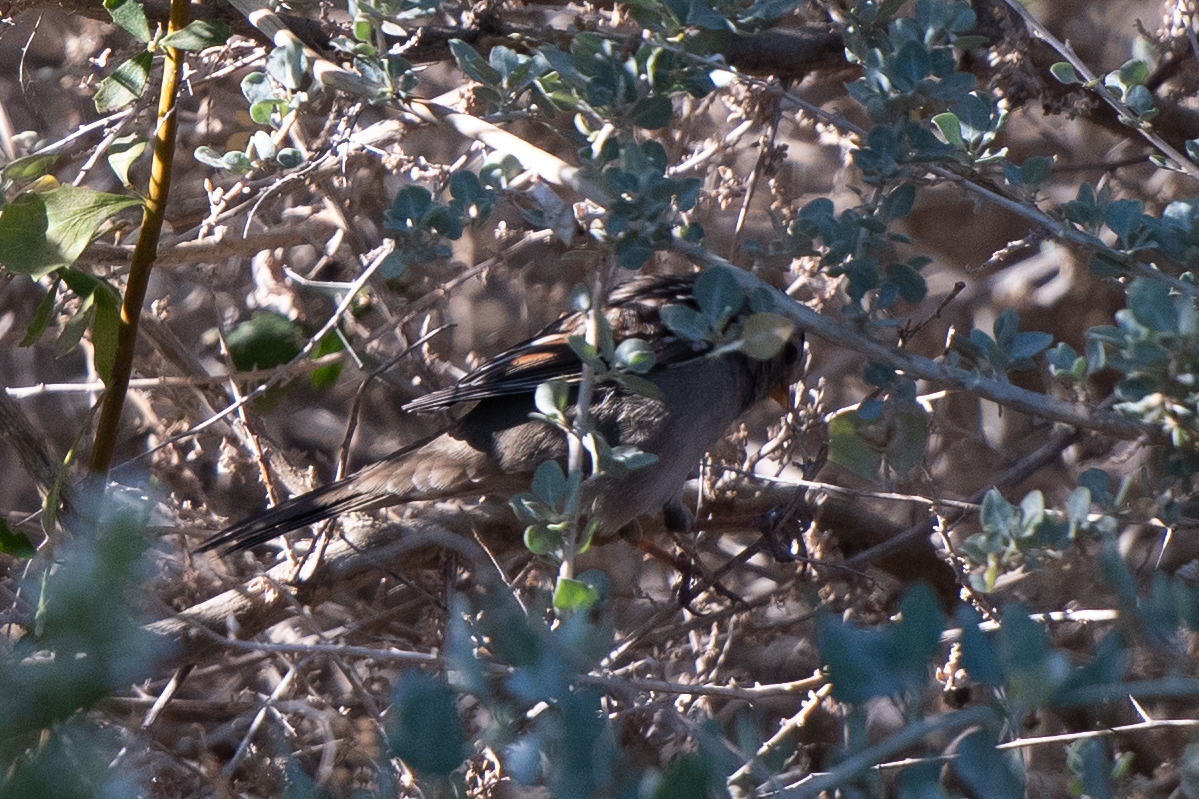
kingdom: Animalia
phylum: Chordata
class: Aves
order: Passeriformes
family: Passerellidae
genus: Zonotrichia
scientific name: Zonotrichia leucophrys
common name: White-crowned sparrow
